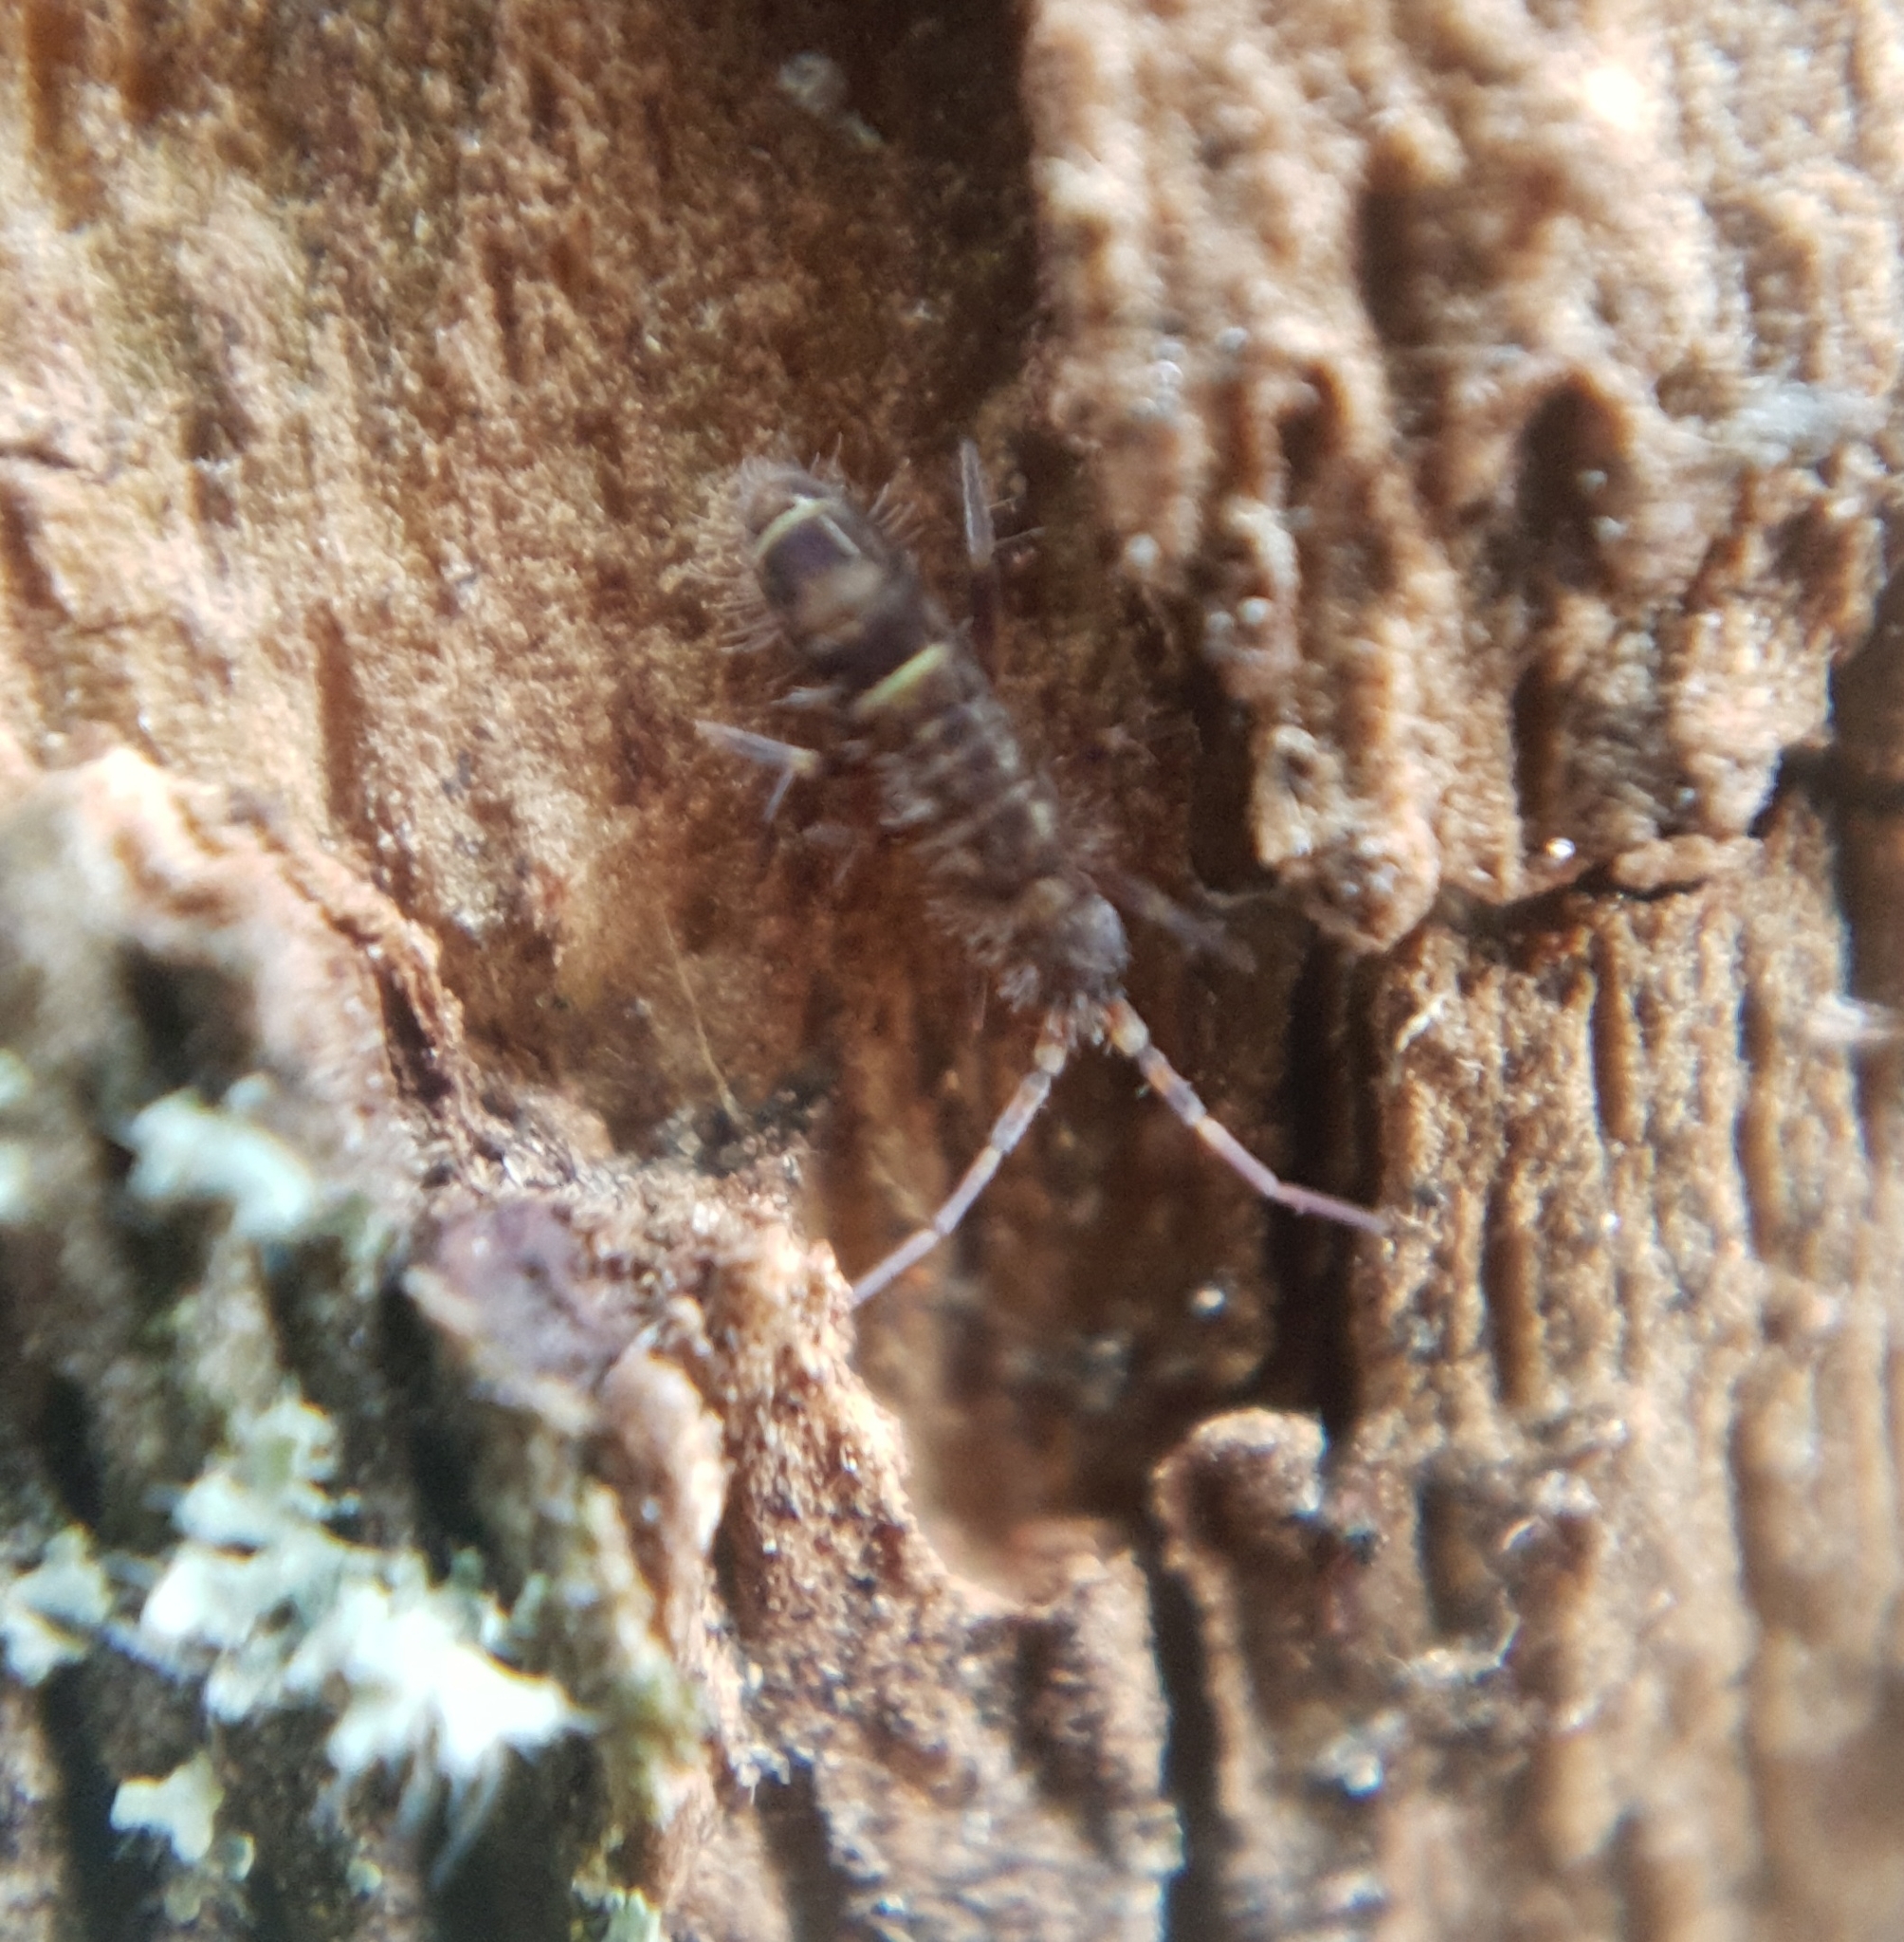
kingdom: Animalia
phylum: Arthropoda
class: Collembola
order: Entomobryomorpha
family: Orchesellidae
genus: Orchesella
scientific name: Orchesella cincta
